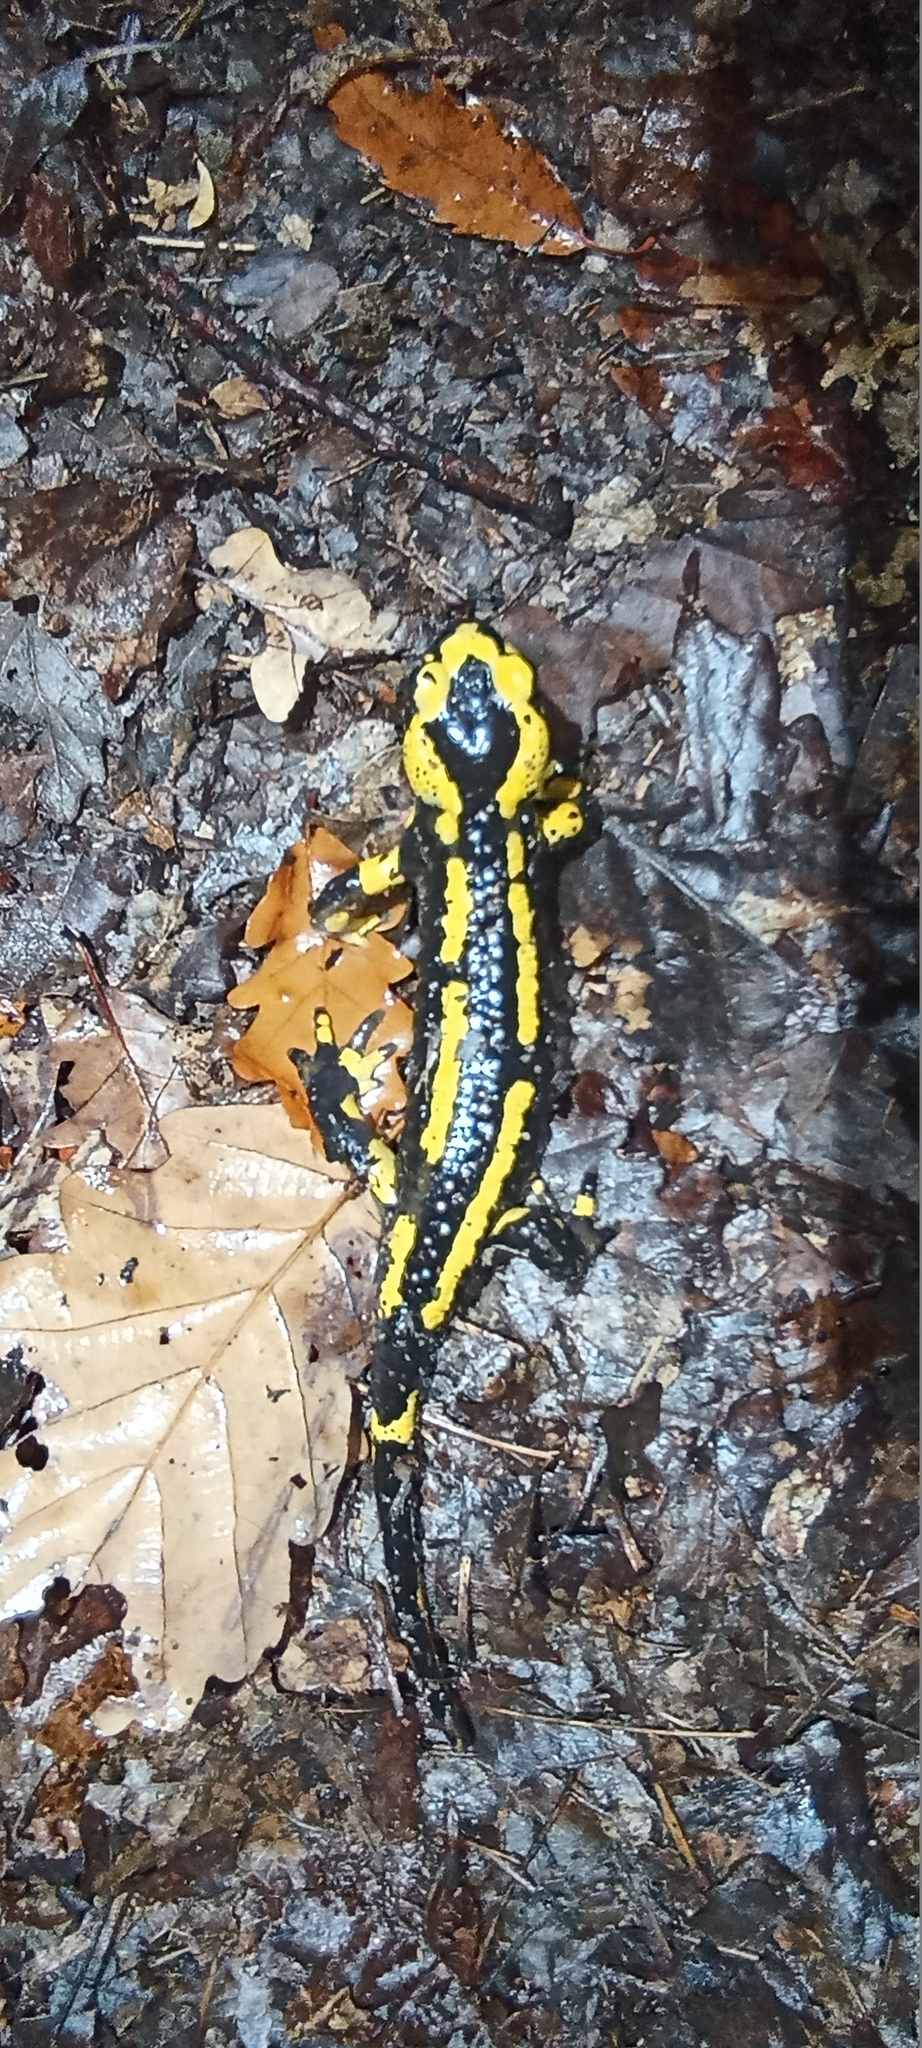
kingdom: Animalia
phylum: Chordata
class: Amphibia
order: Caudata
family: Salamandridae
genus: Salamandra
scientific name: Salamandra salamandra
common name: Fire salamander
